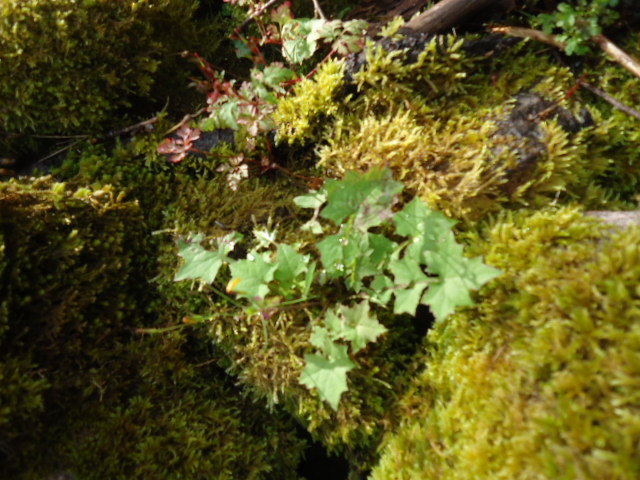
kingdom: Plantae
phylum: Tracheophyta
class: Magnoliopsida
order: Asterales
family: Asteraceae
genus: Mycelis
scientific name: Mycelis muralis
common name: Wall lettuce
